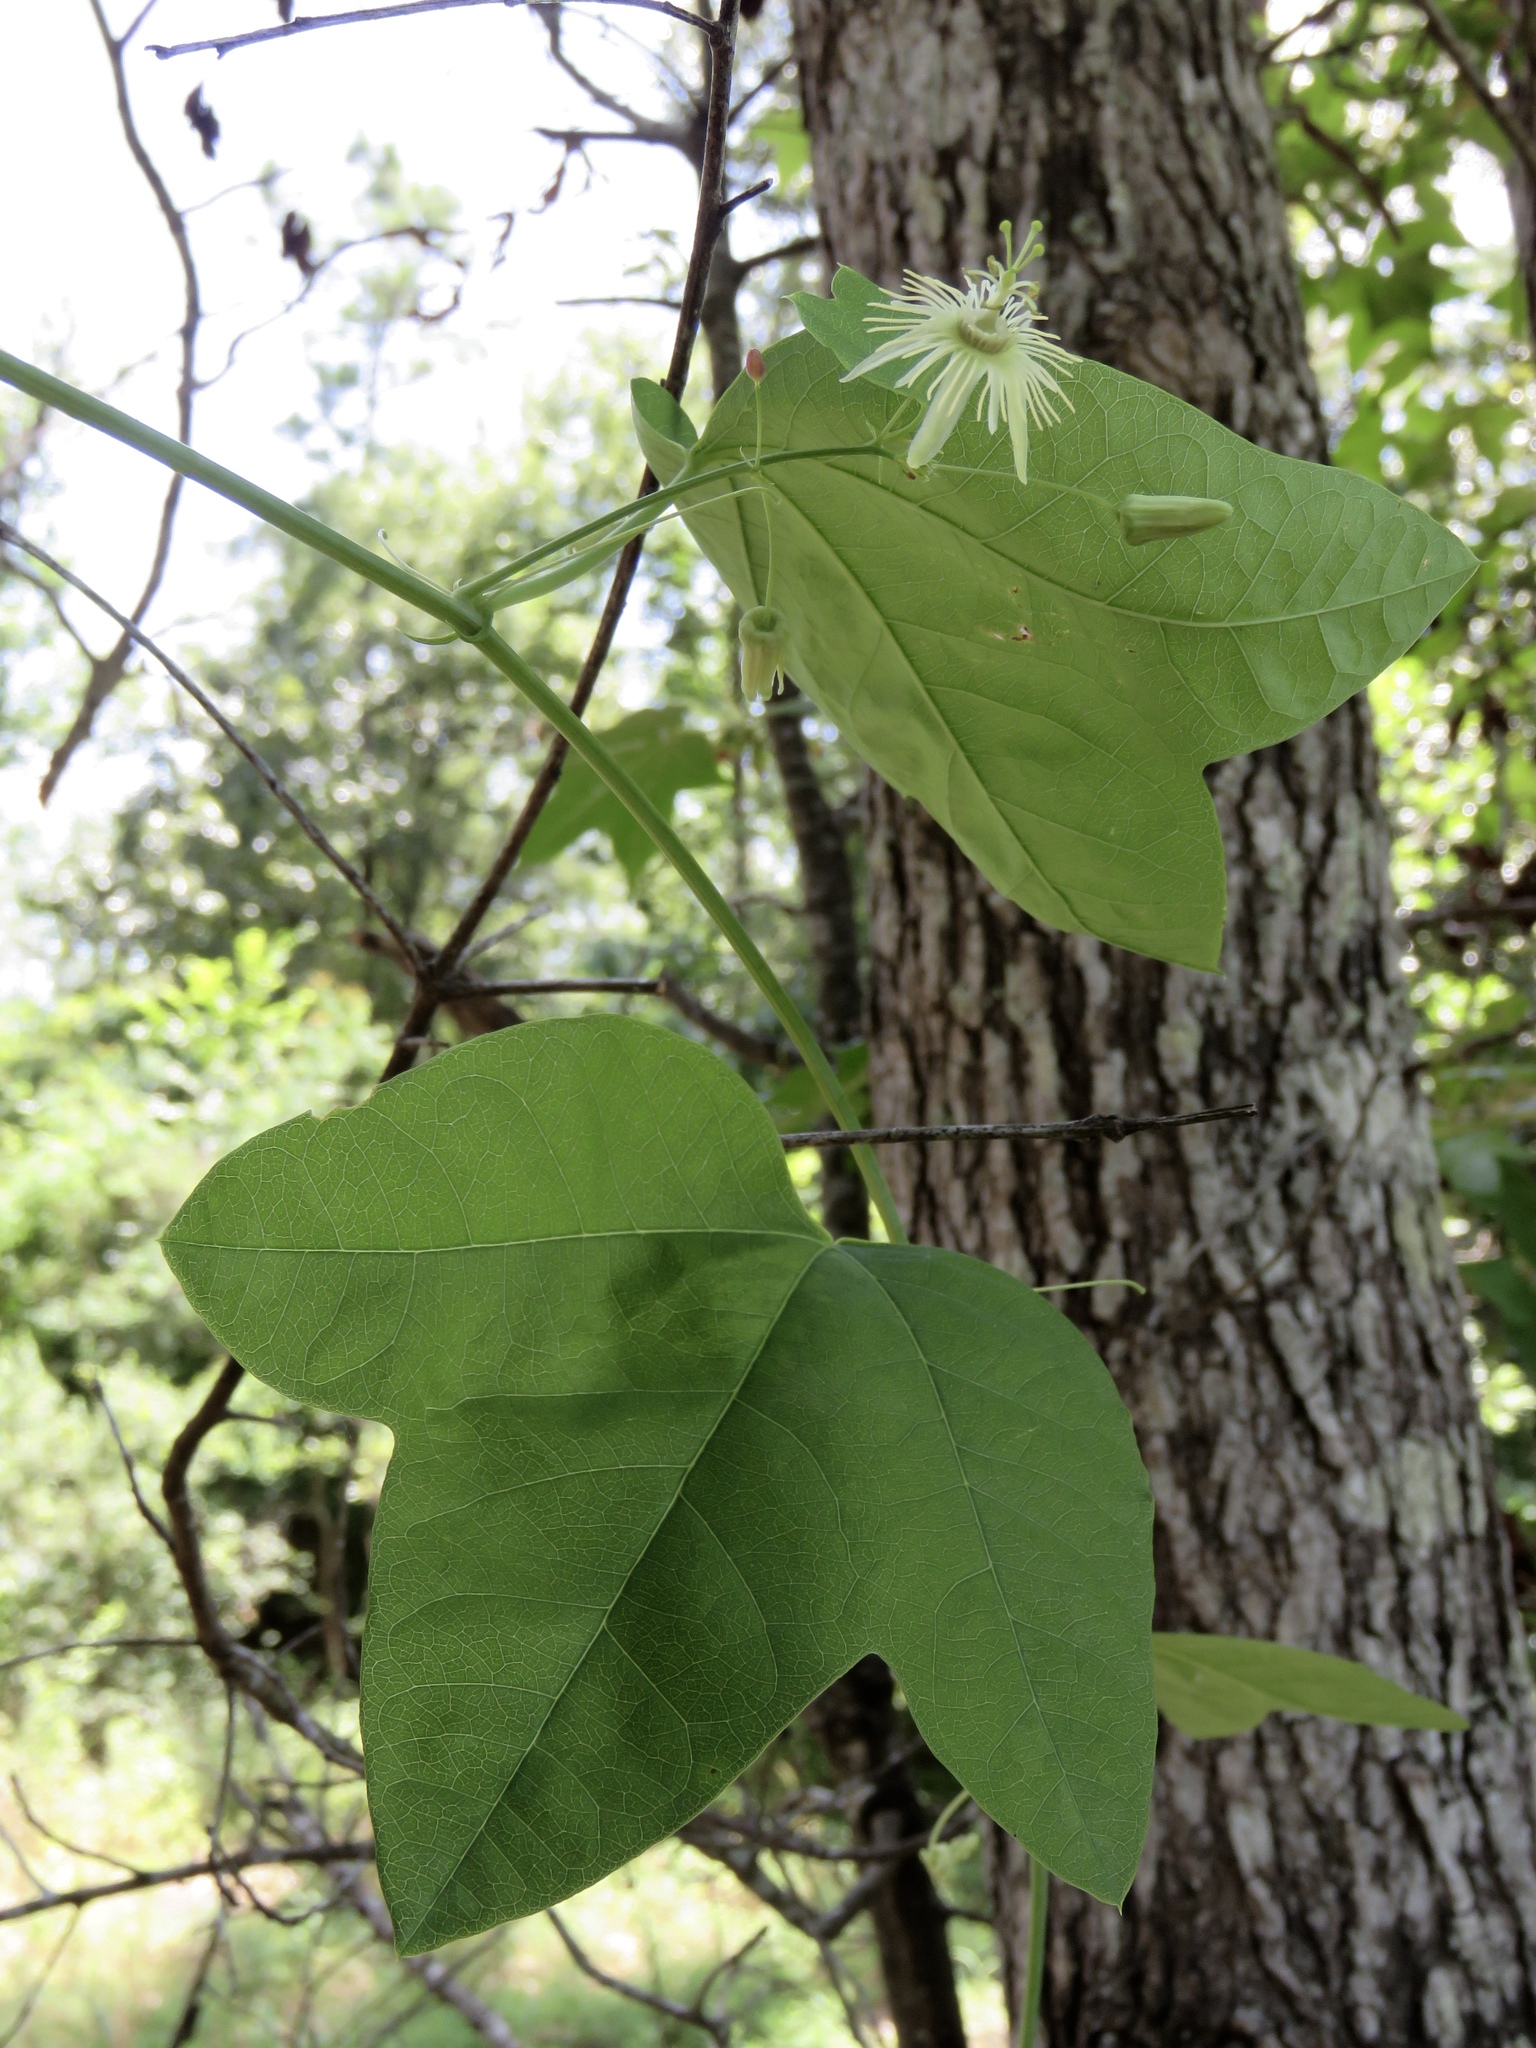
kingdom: Plantae
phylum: Tracheophyta
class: Magnoliopsida
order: Malpighiales
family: Passifloraceae
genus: Passiflora
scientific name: Passiflora lutea
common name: Yellow passionflower
